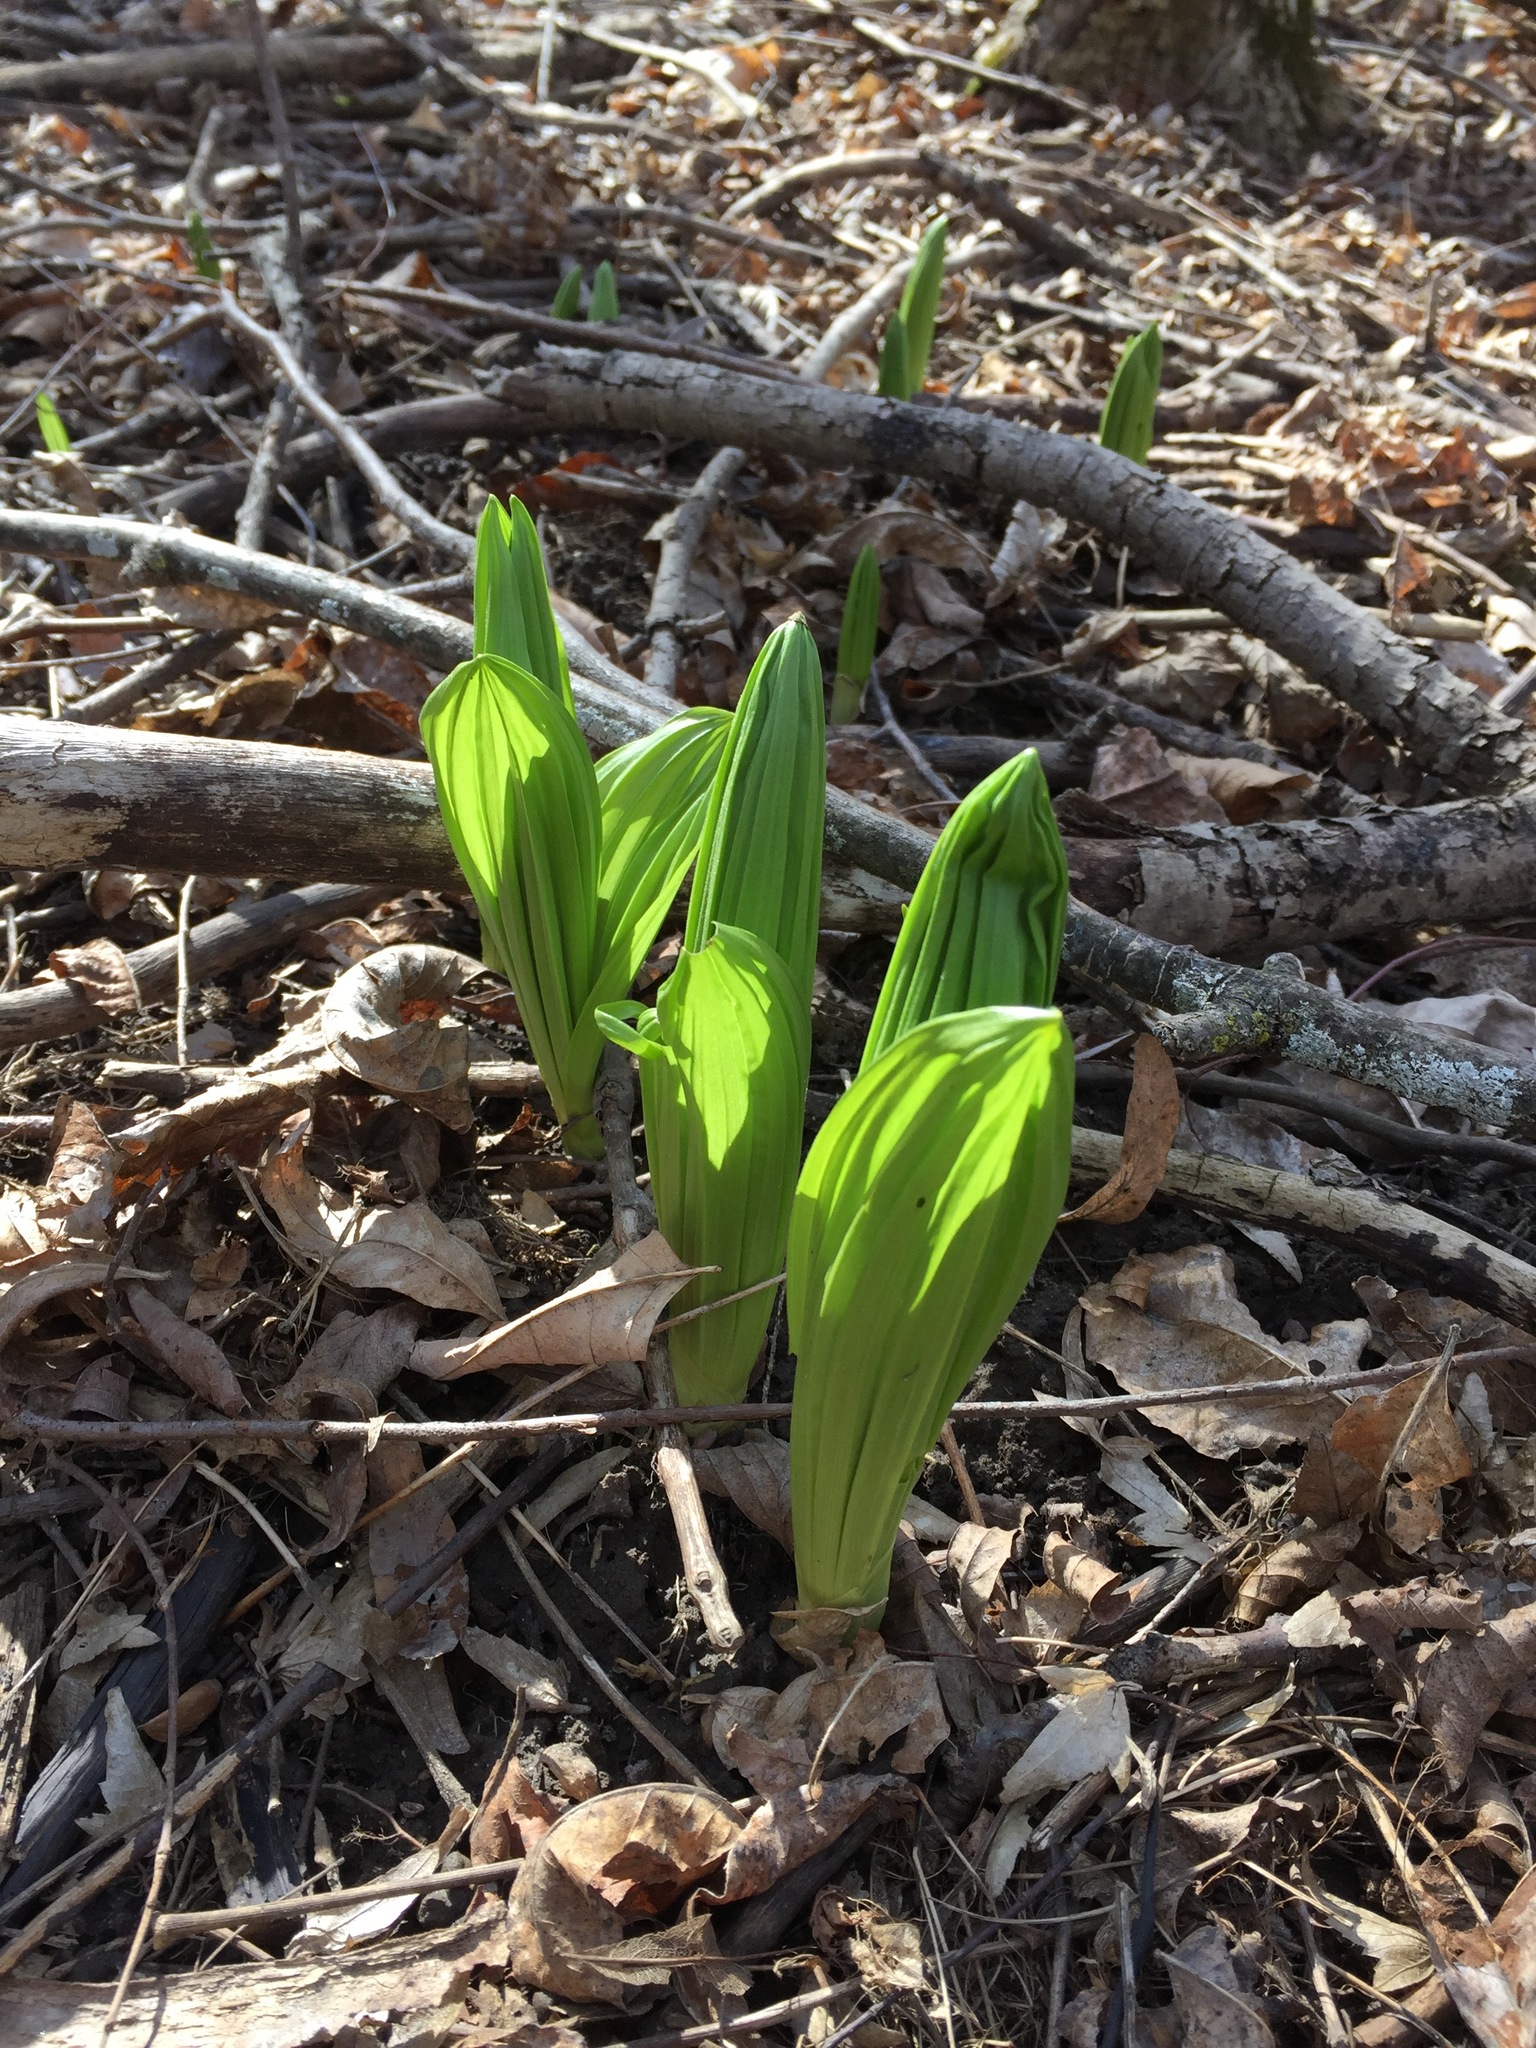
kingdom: Plantae
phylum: Tracheophyta
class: Liliopsida
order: Liliales
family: Melanthiaceae
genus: Veratrum
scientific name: Veratrum viride
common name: American false hellebore
